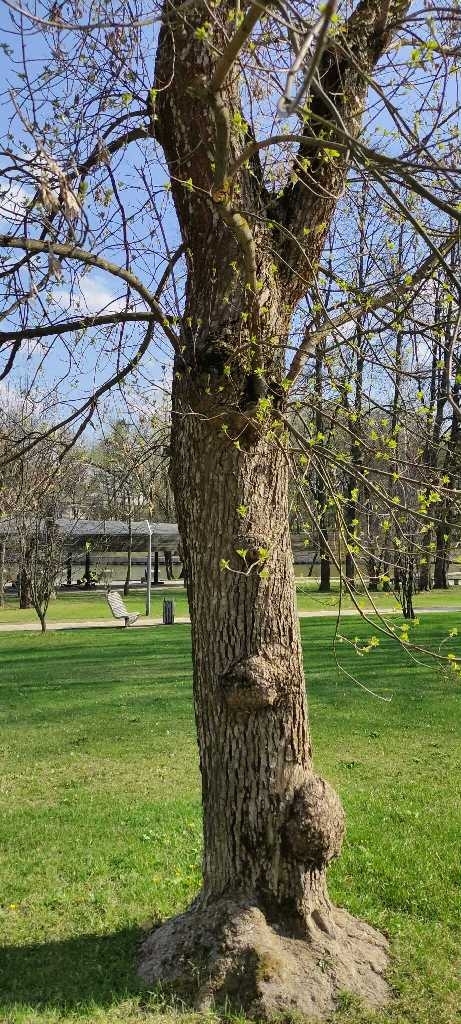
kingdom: Plantae
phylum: Tracheophyta
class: Magnoliopsida
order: Sapindales
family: Sapindaceae
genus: Acer
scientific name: Acer negundo
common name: Ashleaf maple
